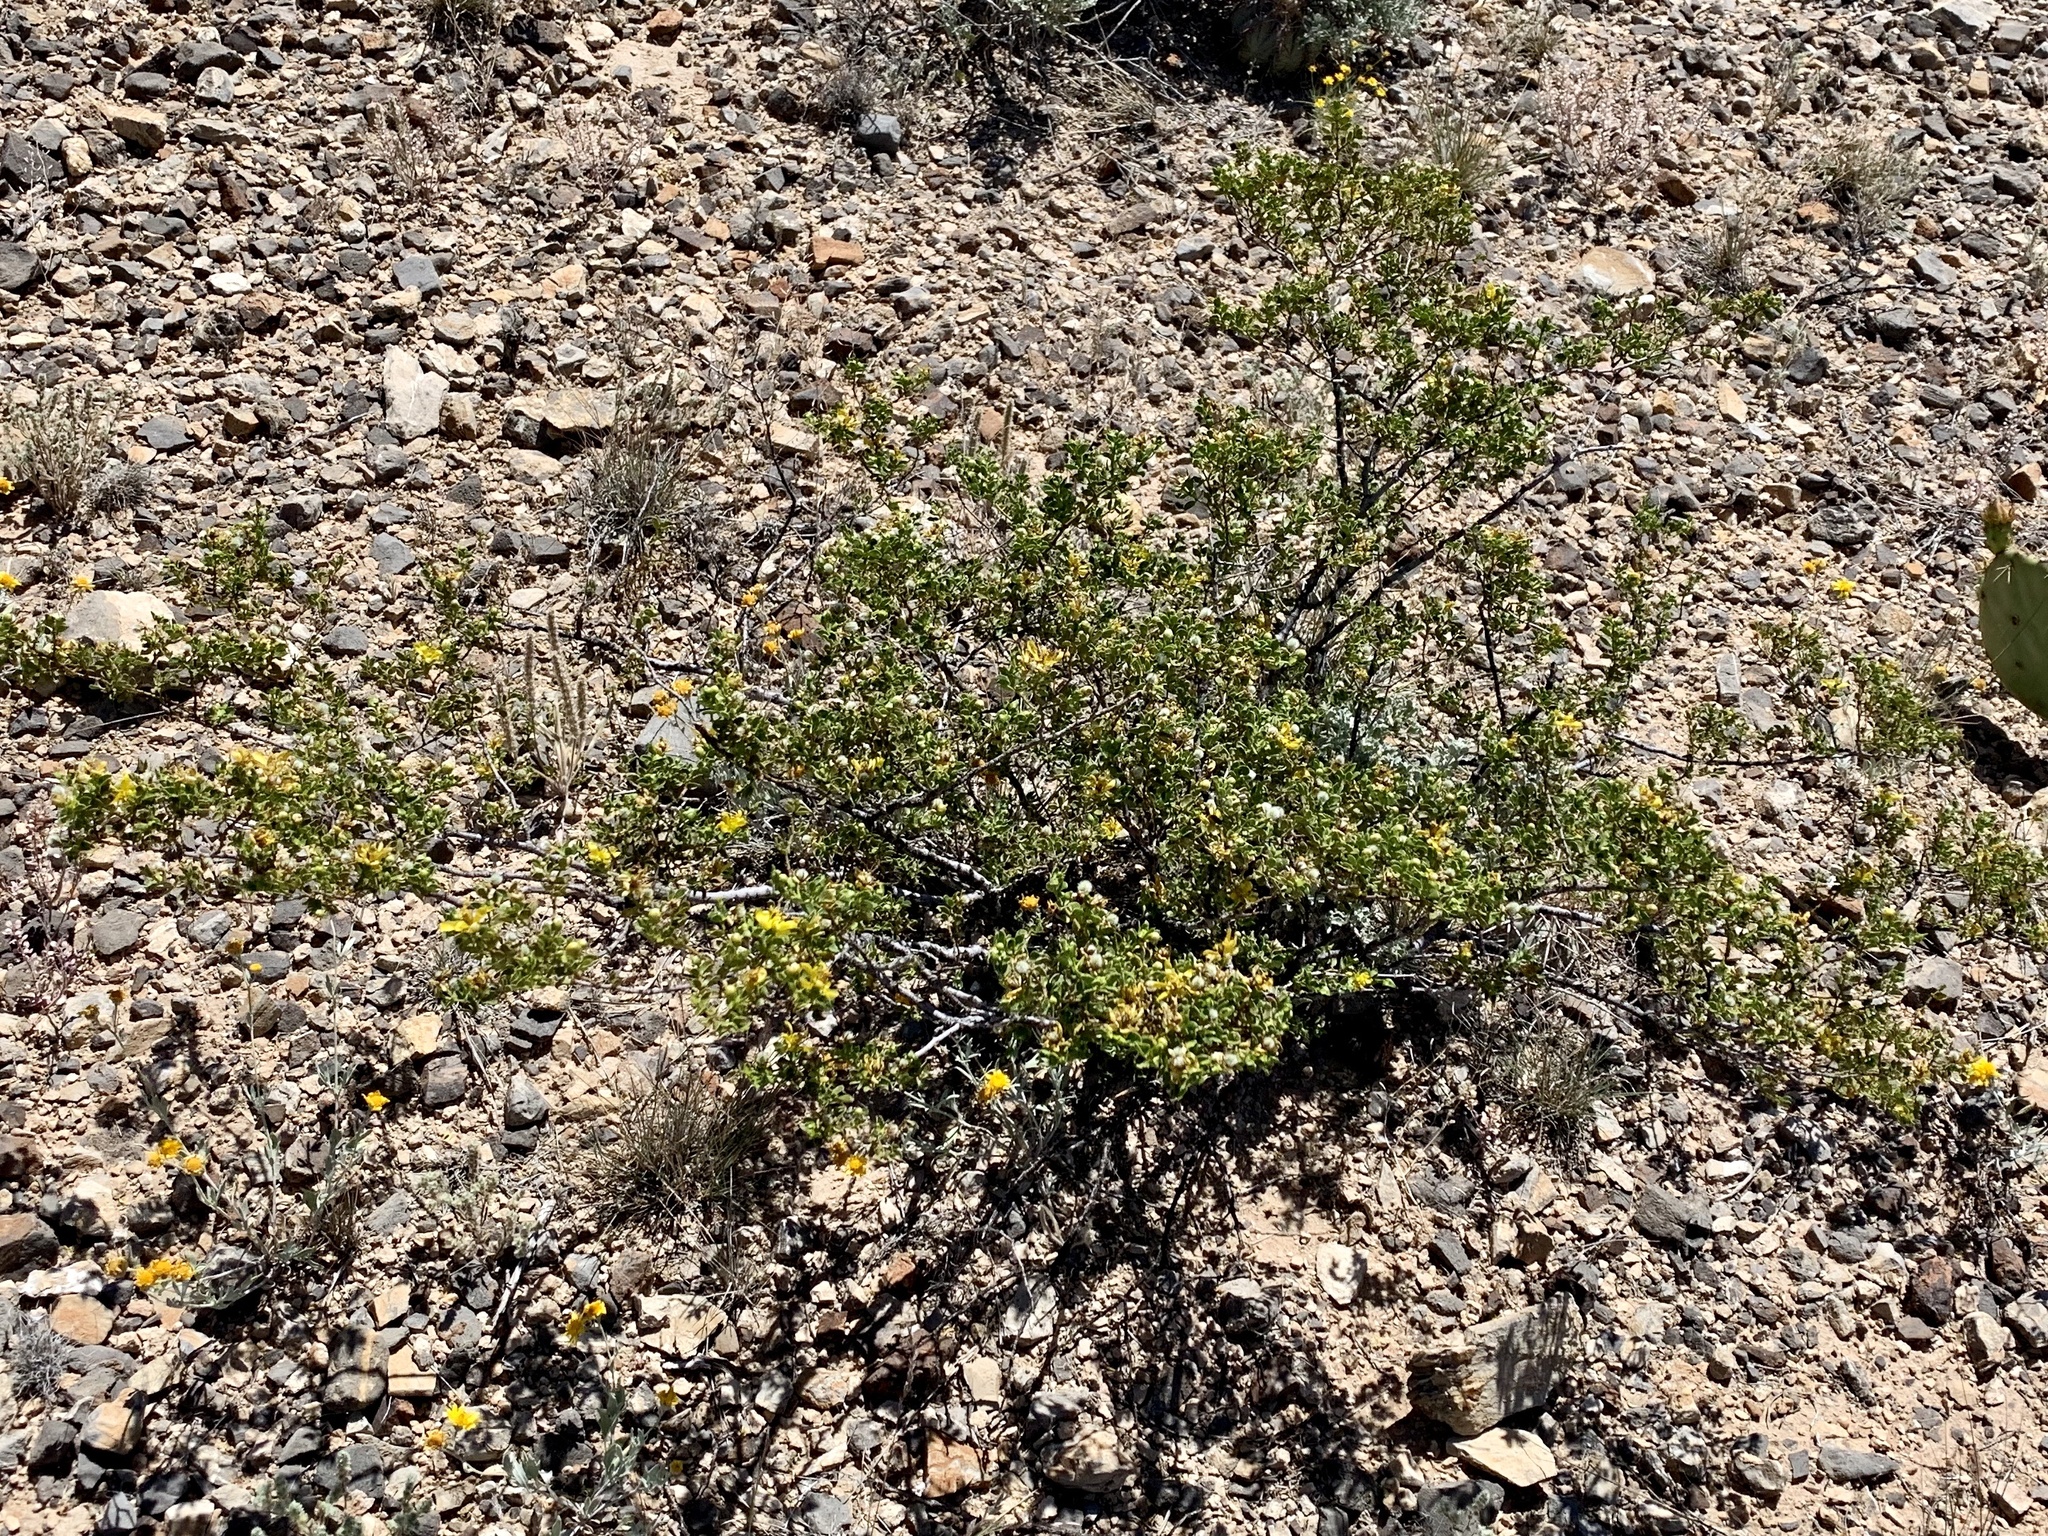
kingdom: Plantae
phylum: Tracheophyta
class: Magnoliopsida
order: Zygophyllales
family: Zygophyllaceae
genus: Larrea
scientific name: Larrea tridentata
